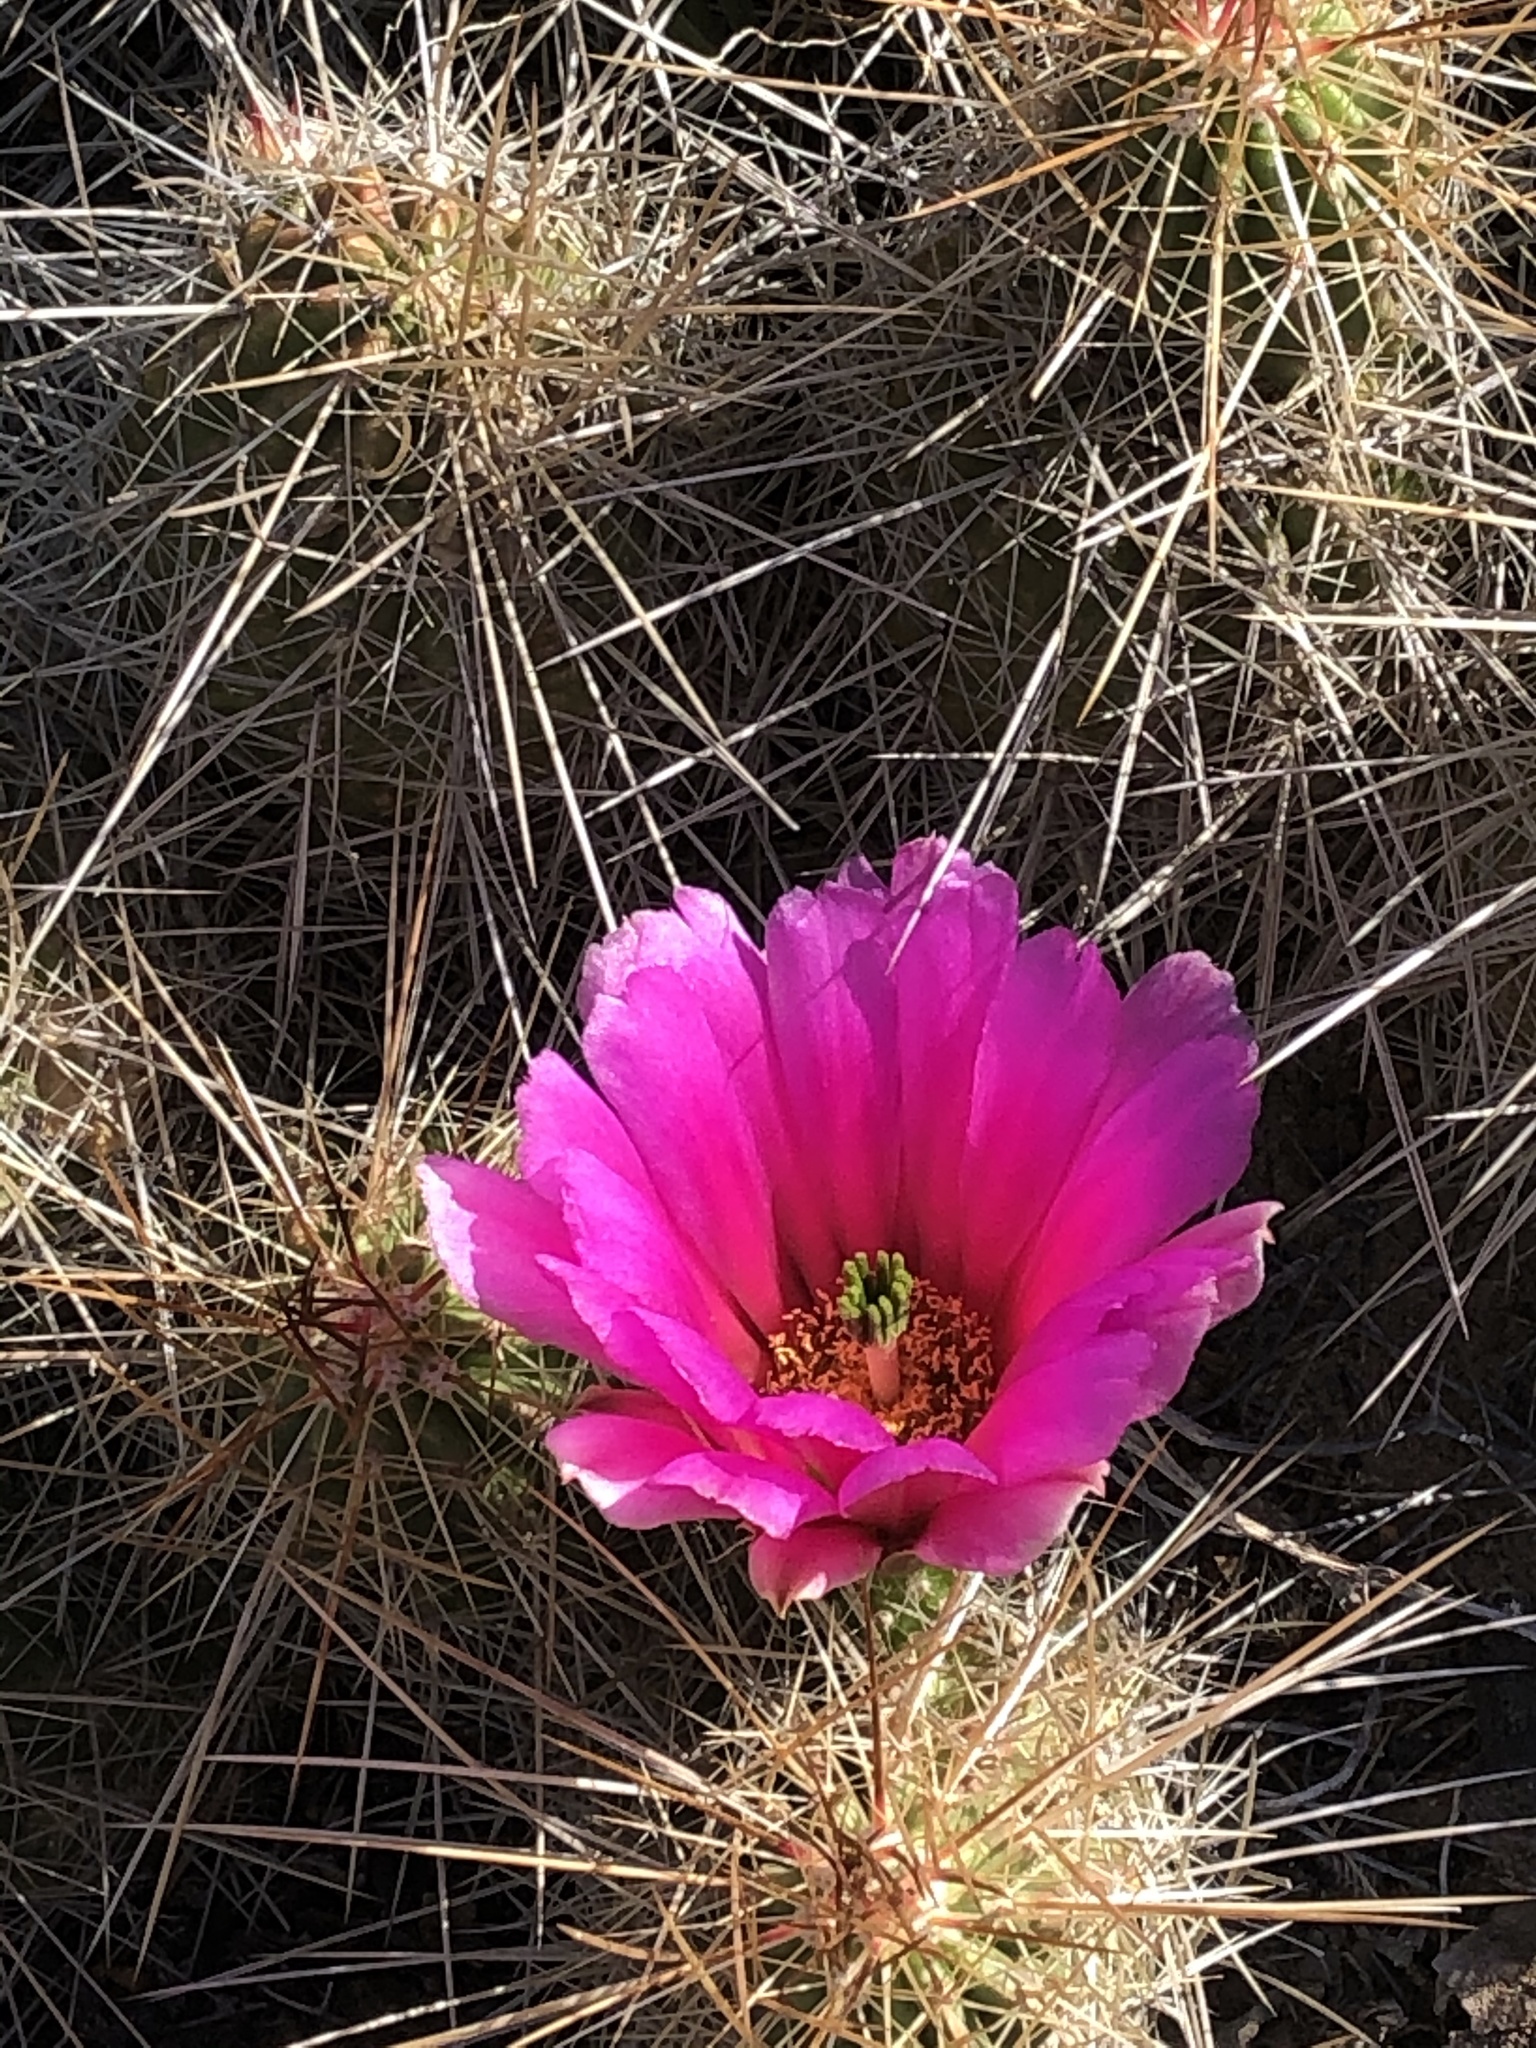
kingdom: Plantae
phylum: Tracheophyta
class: Magnoliopsida
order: Caryophyllales
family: Cactaceae
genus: Echinocereus
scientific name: Echinocereus stramineus
